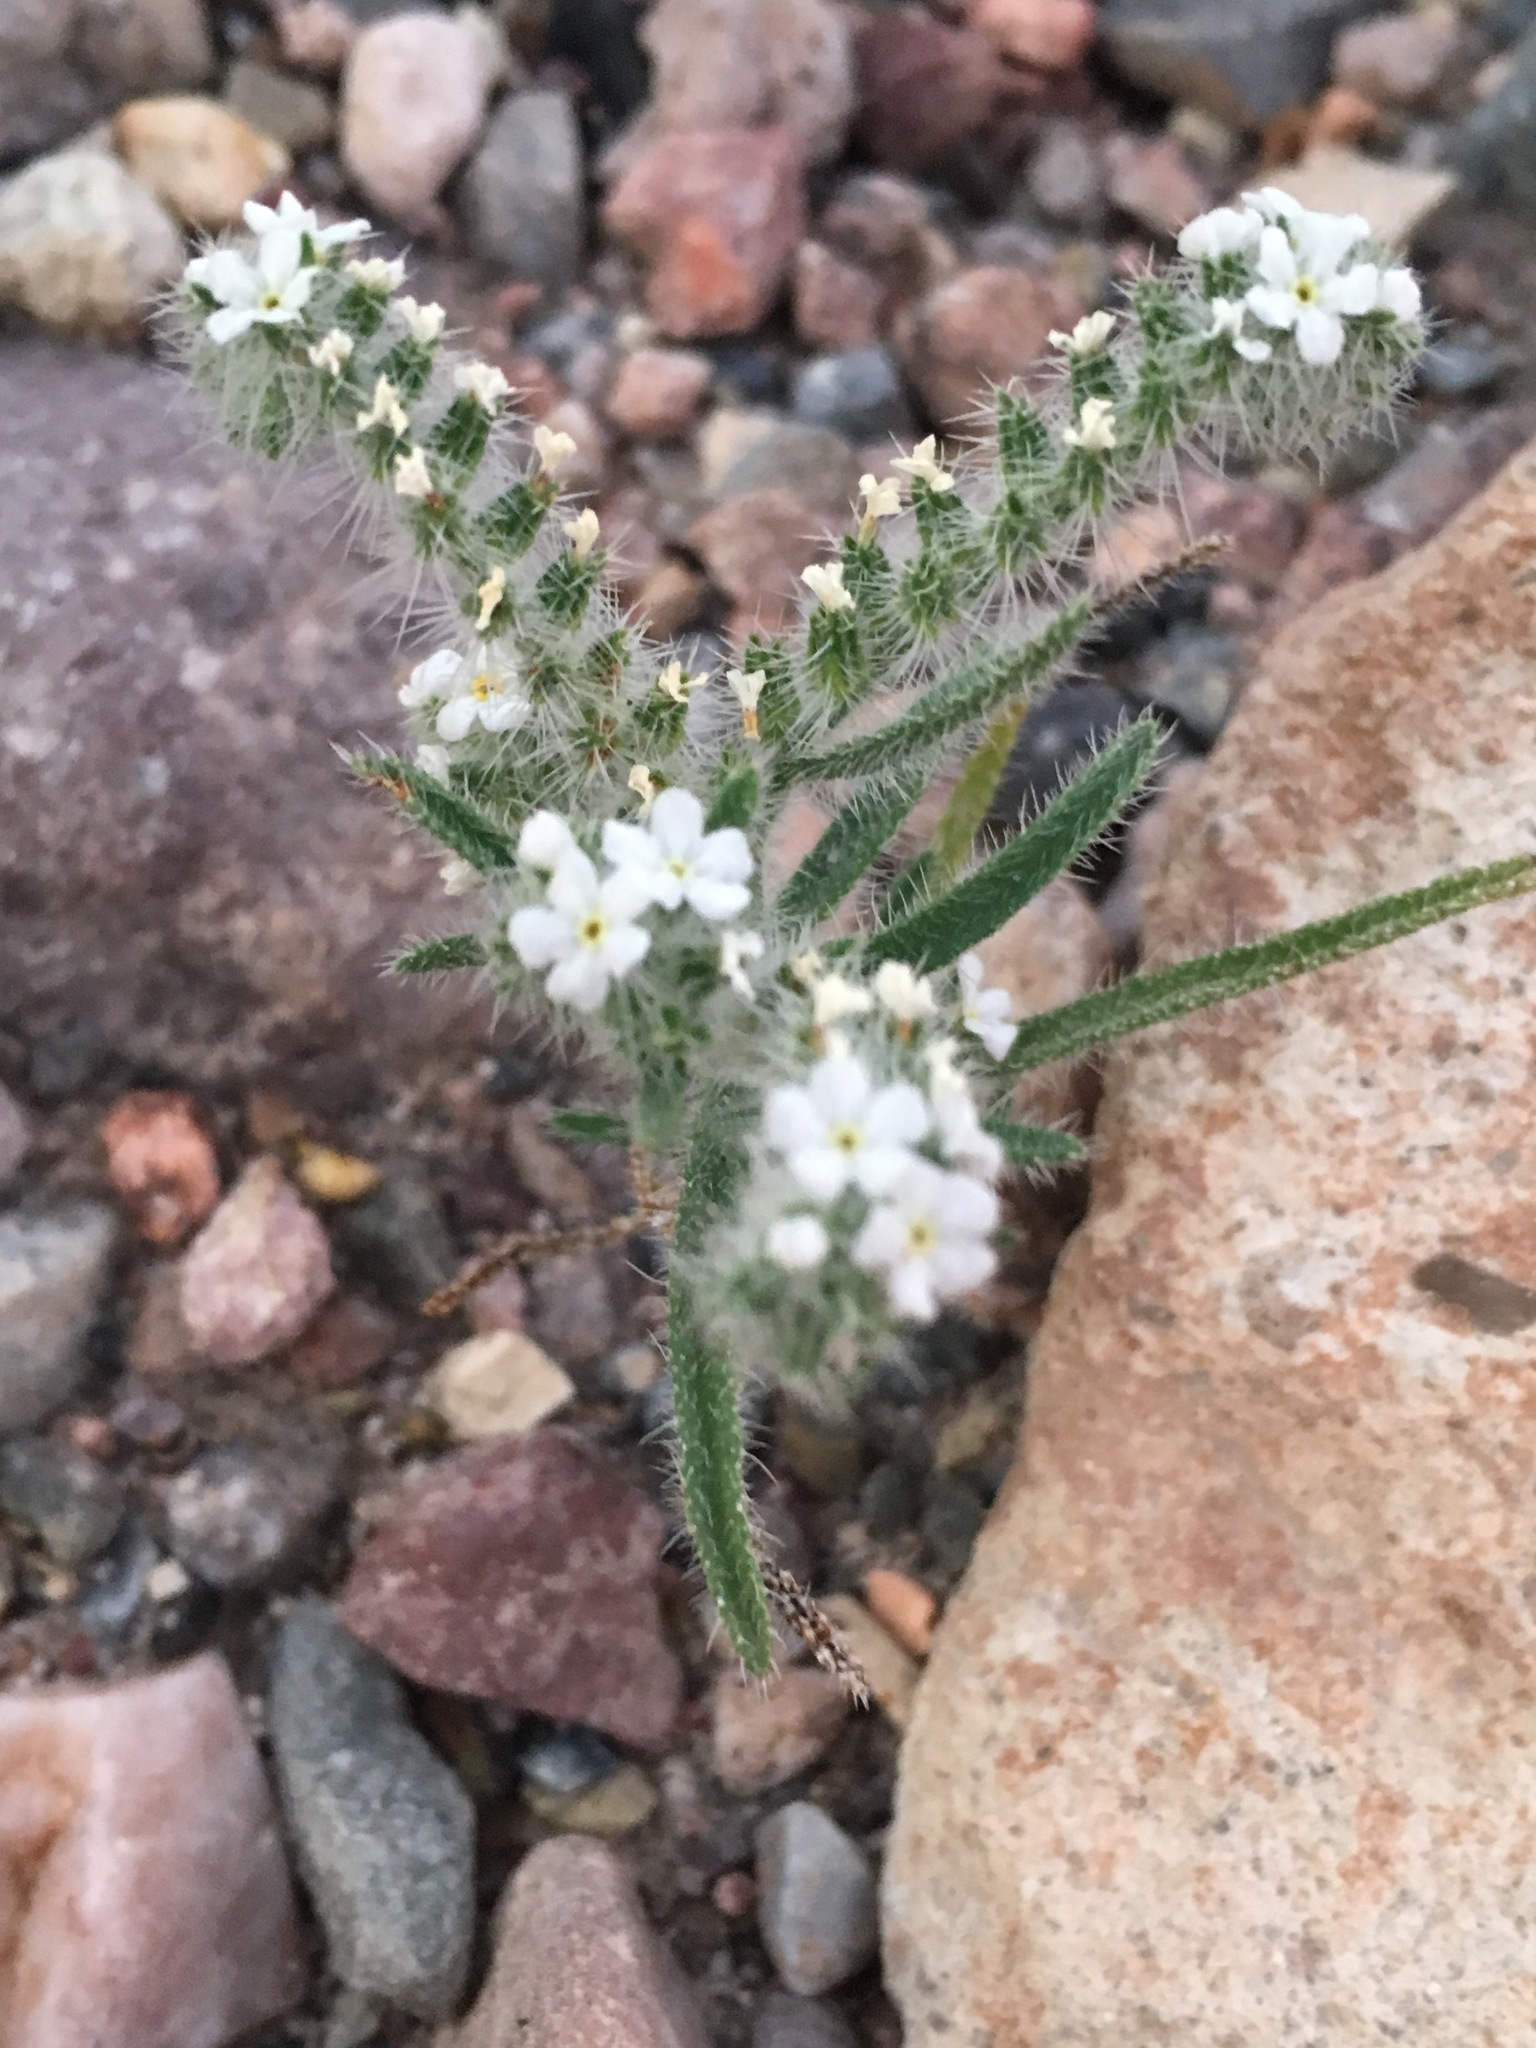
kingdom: Plantae
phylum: Tracheophyta
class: Magnoliopsida
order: Boraginales
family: Boraginaceae
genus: Johnstonella
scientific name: Johnstonella angustifolia
